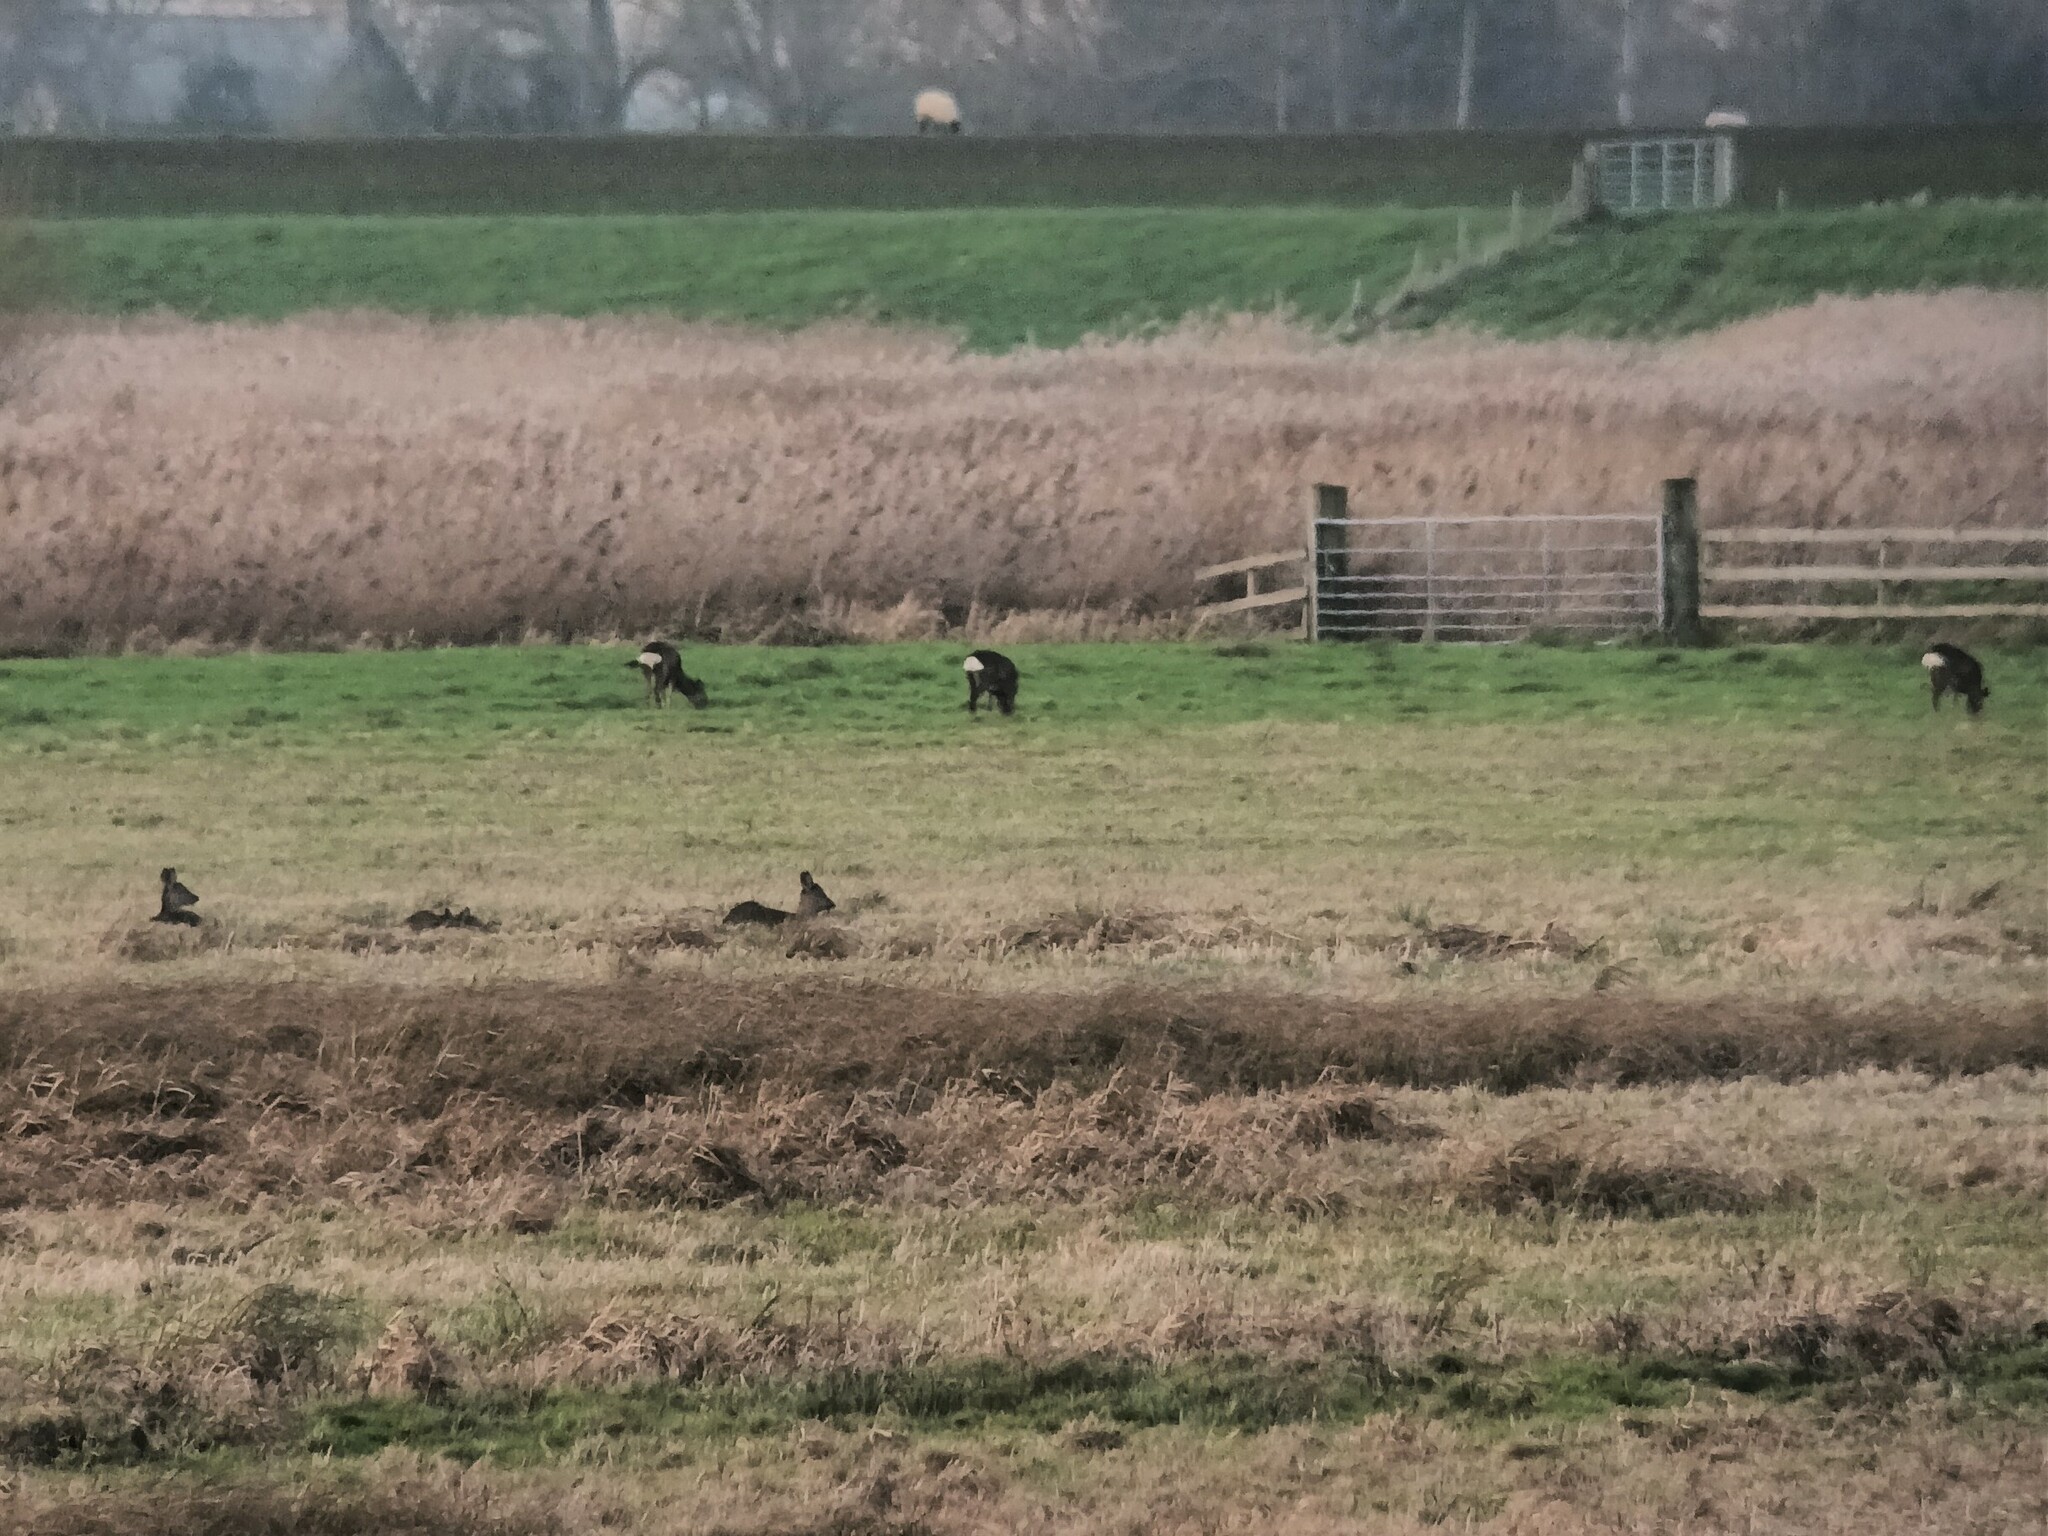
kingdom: Animalia
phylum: Chordata
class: Mammalia
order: Artiodactyla
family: Cervidae
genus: Capreolus
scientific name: Capreolus capreolus
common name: Western roe deer
